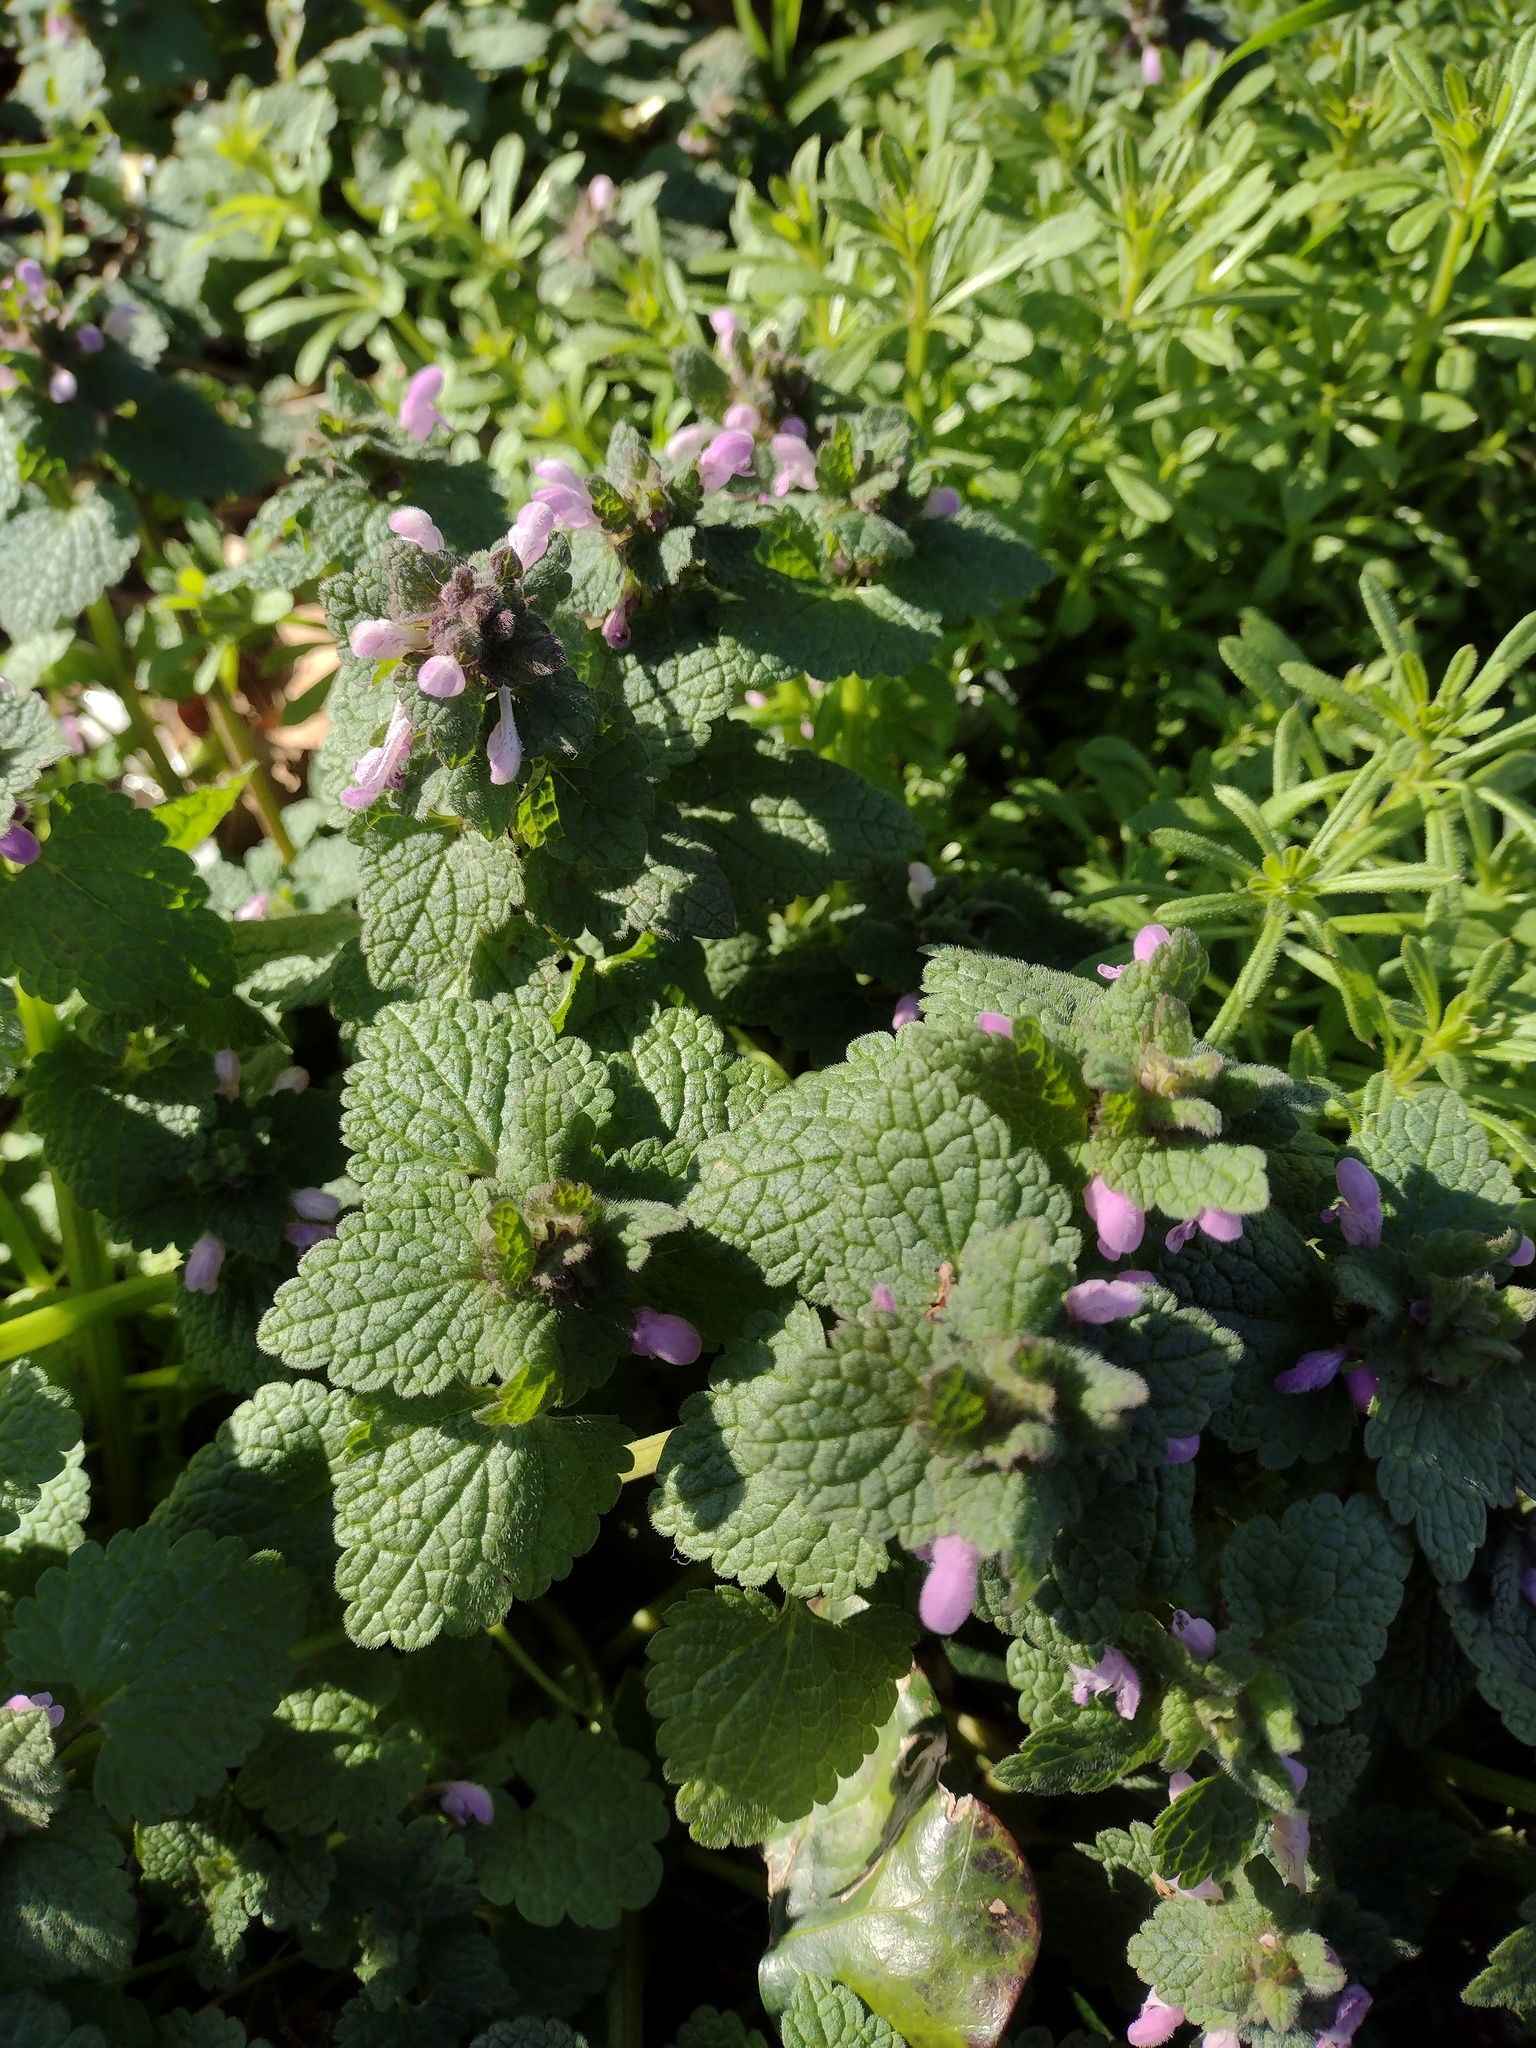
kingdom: Plantae
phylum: Tracheophyta
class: Magnoliopsida
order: Lamiales
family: Lamiaceae
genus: Lamium
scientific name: Lamium purpureum
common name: Red dead-nettle
